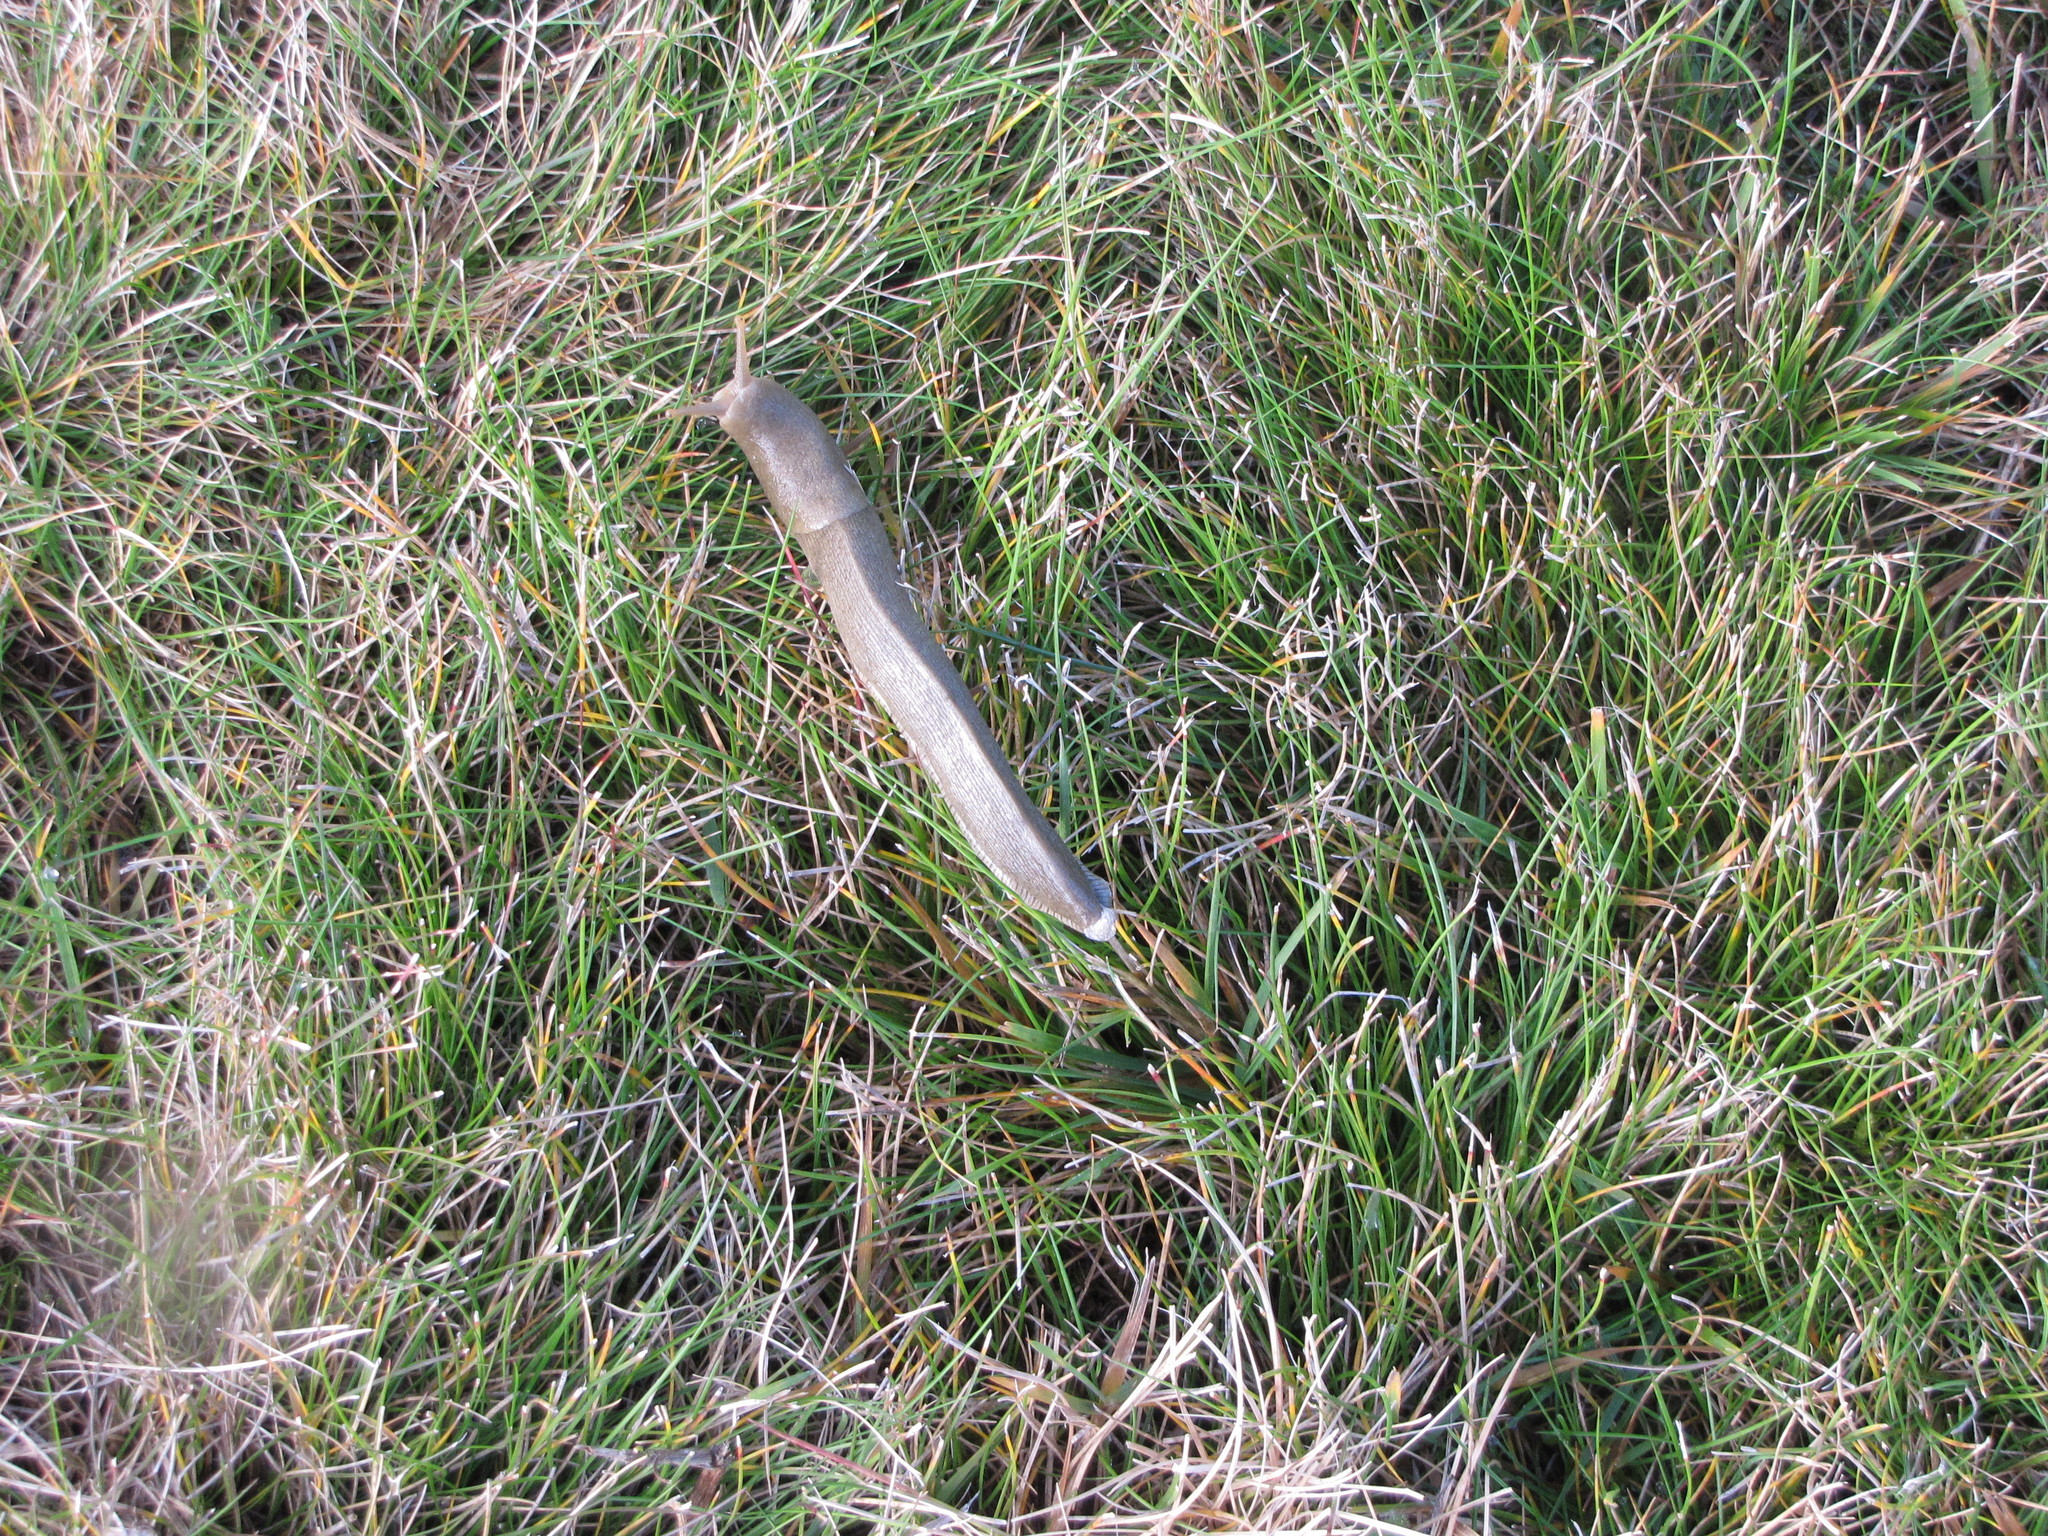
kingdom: Animalia
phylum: Mollusca
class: Gastropoda
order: Stylommatophora
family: Ariolimacidae
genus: Ariolimax
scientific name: Ariolimax columbianus
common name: Pacific banana slug
